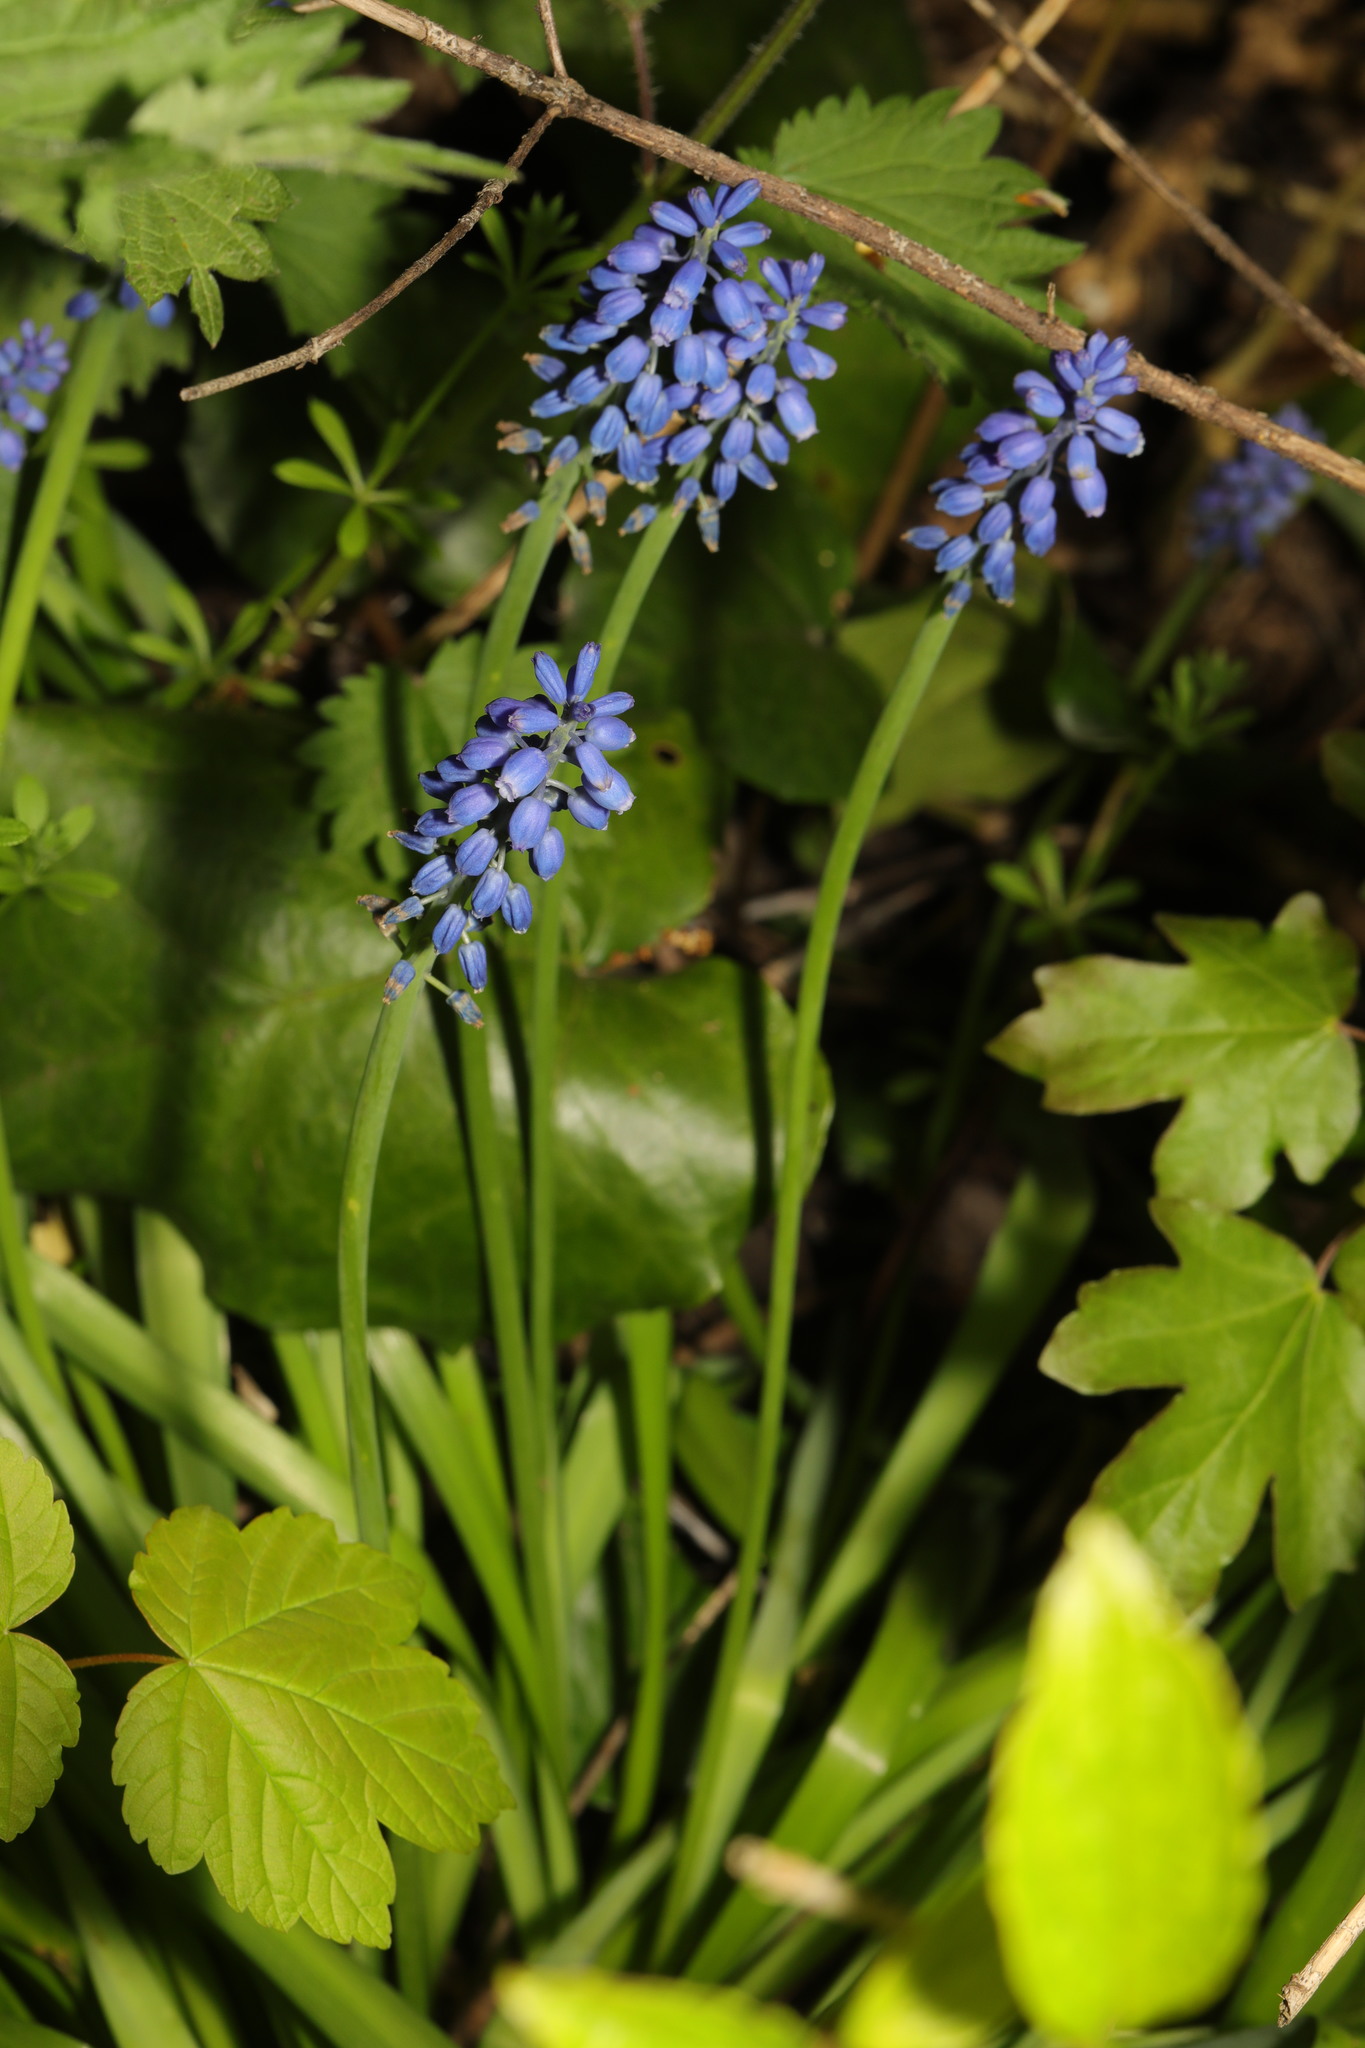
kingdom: Plantae
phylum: Tracheophyta
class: Liliopsida
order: Asparagales
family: Asparagaceae
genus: Muscari
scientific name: Muscari armeniacum
